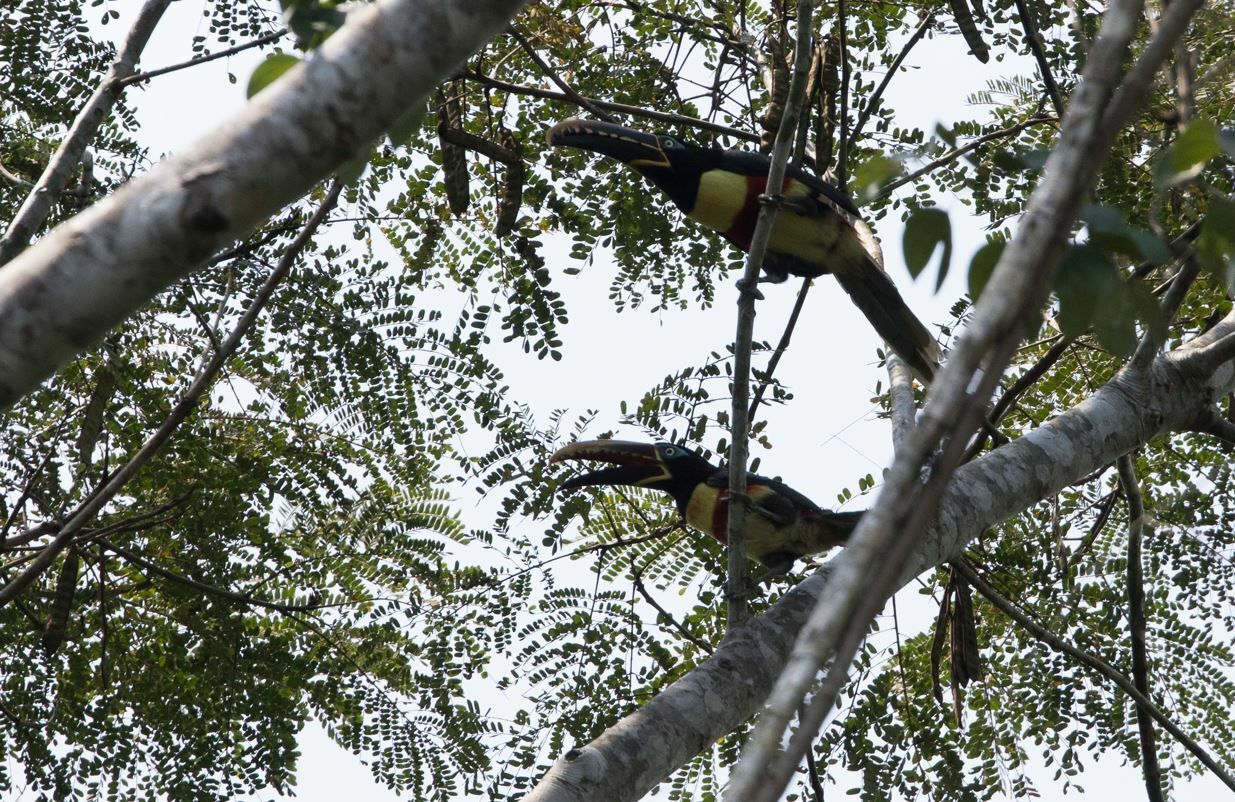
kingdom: Animalia
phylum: Chordata
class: Aves
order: Piciformes
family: Ramphastidae
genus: Pteroglossus
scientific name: Pteroglossus castanotis
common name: Chestnut-eared aracari
